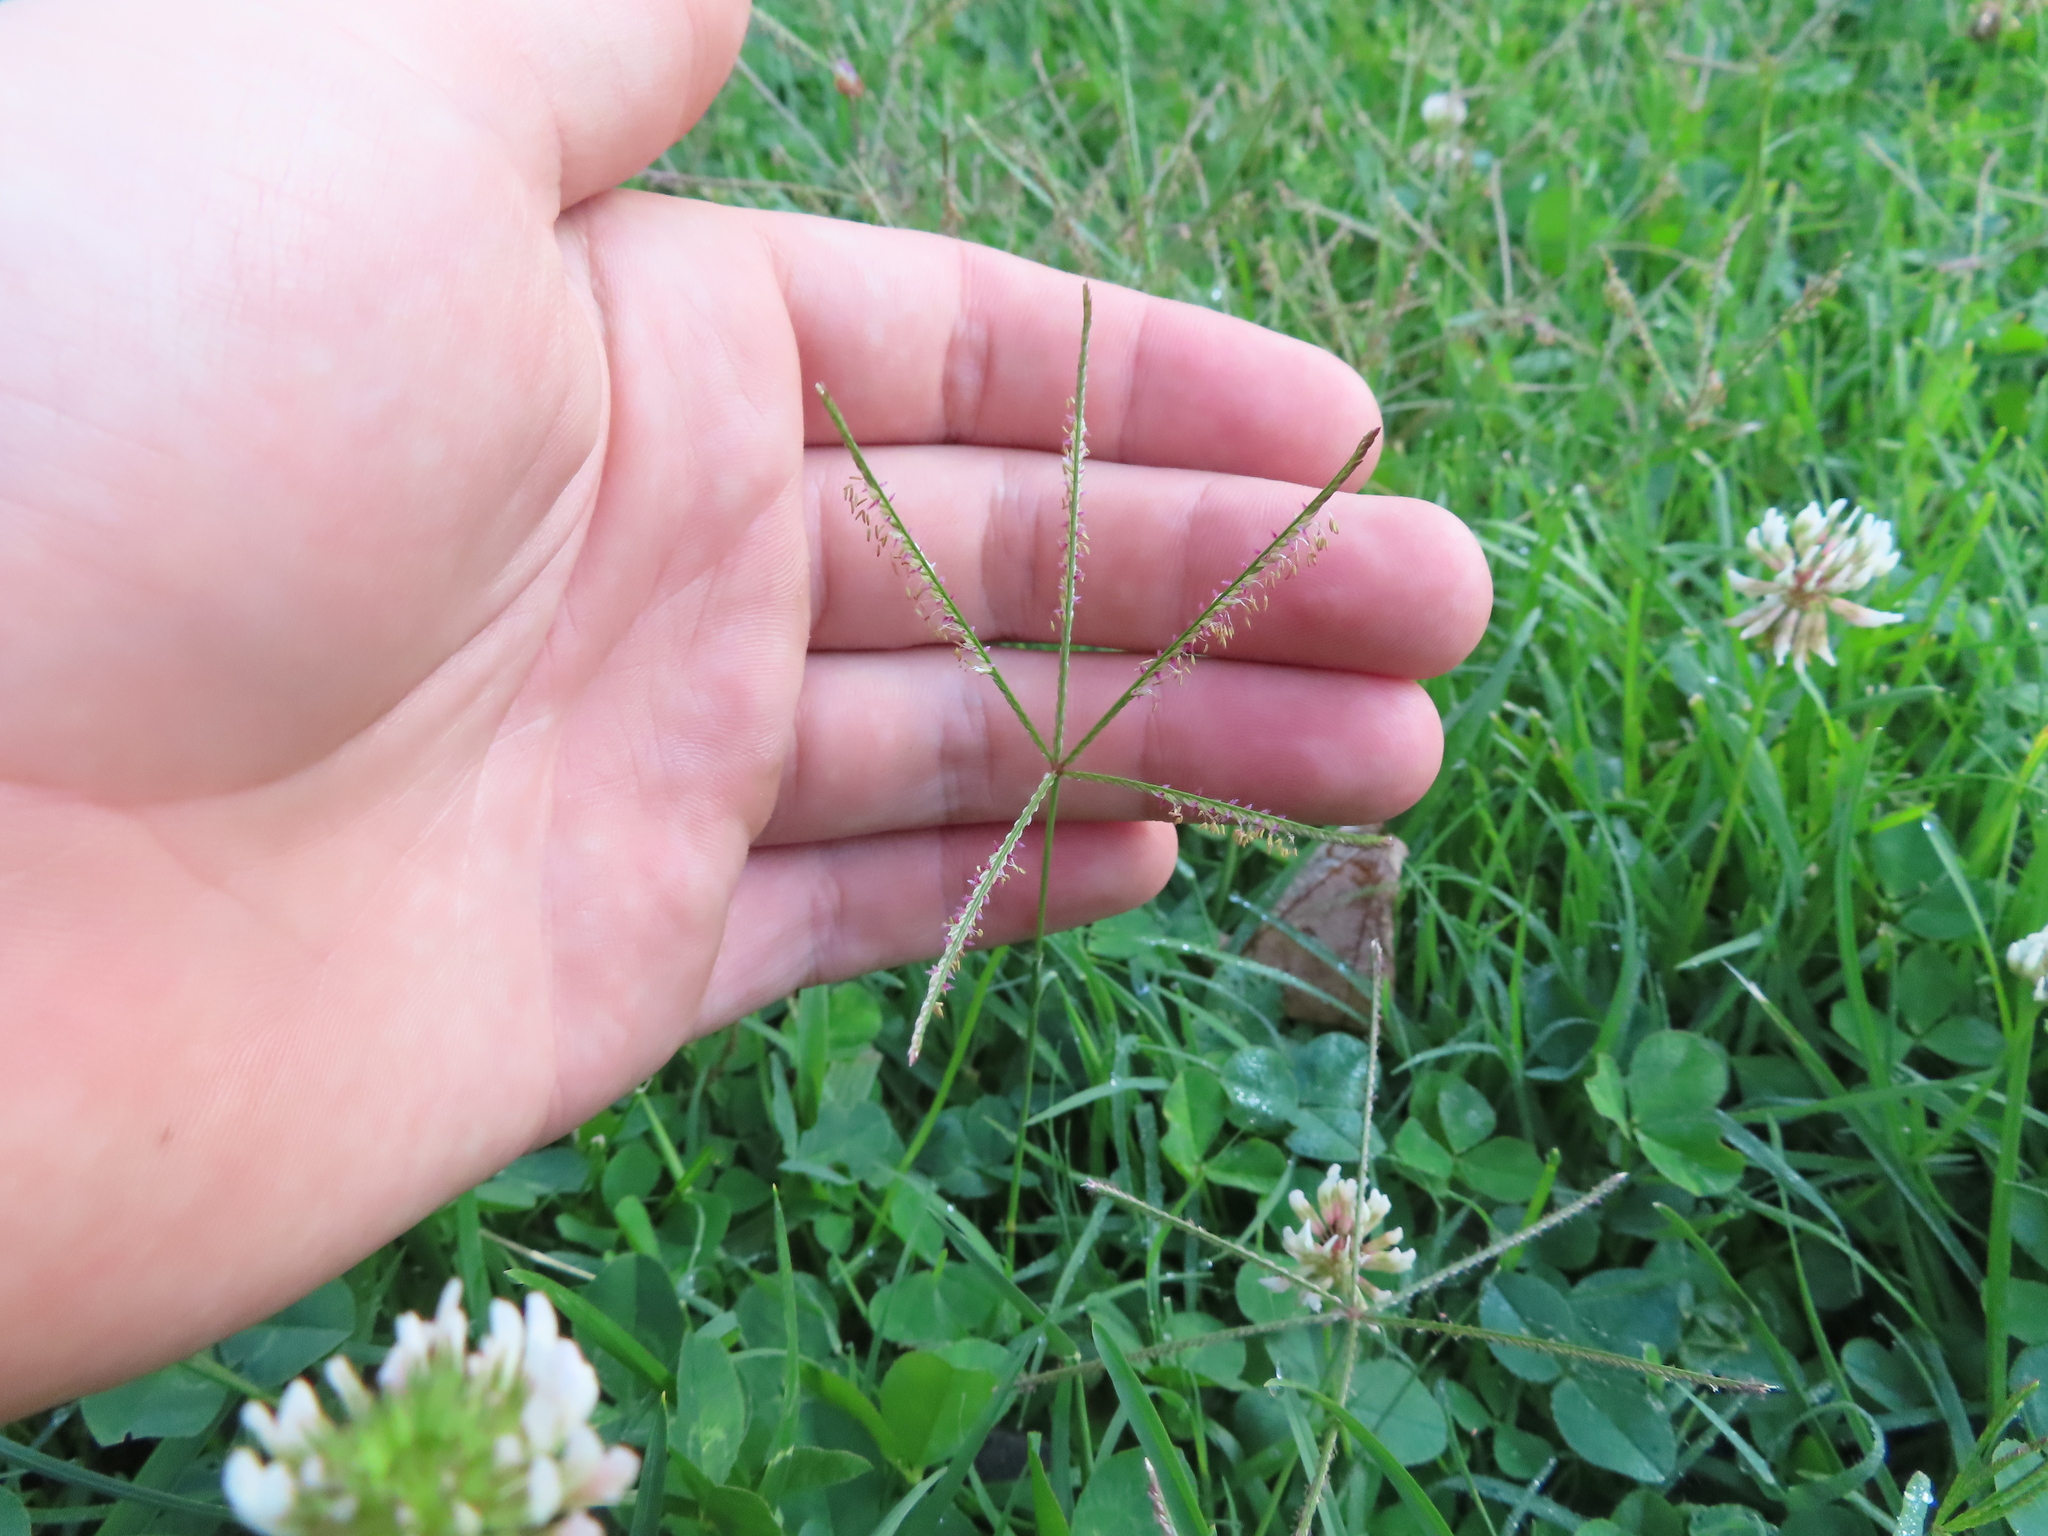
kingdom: Plantae
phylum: Tracheophyta
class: Liliopsida
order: Poales
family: Poaceae
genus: Cynodon
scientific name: Cynodon dactylon
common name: Bermuda grass
